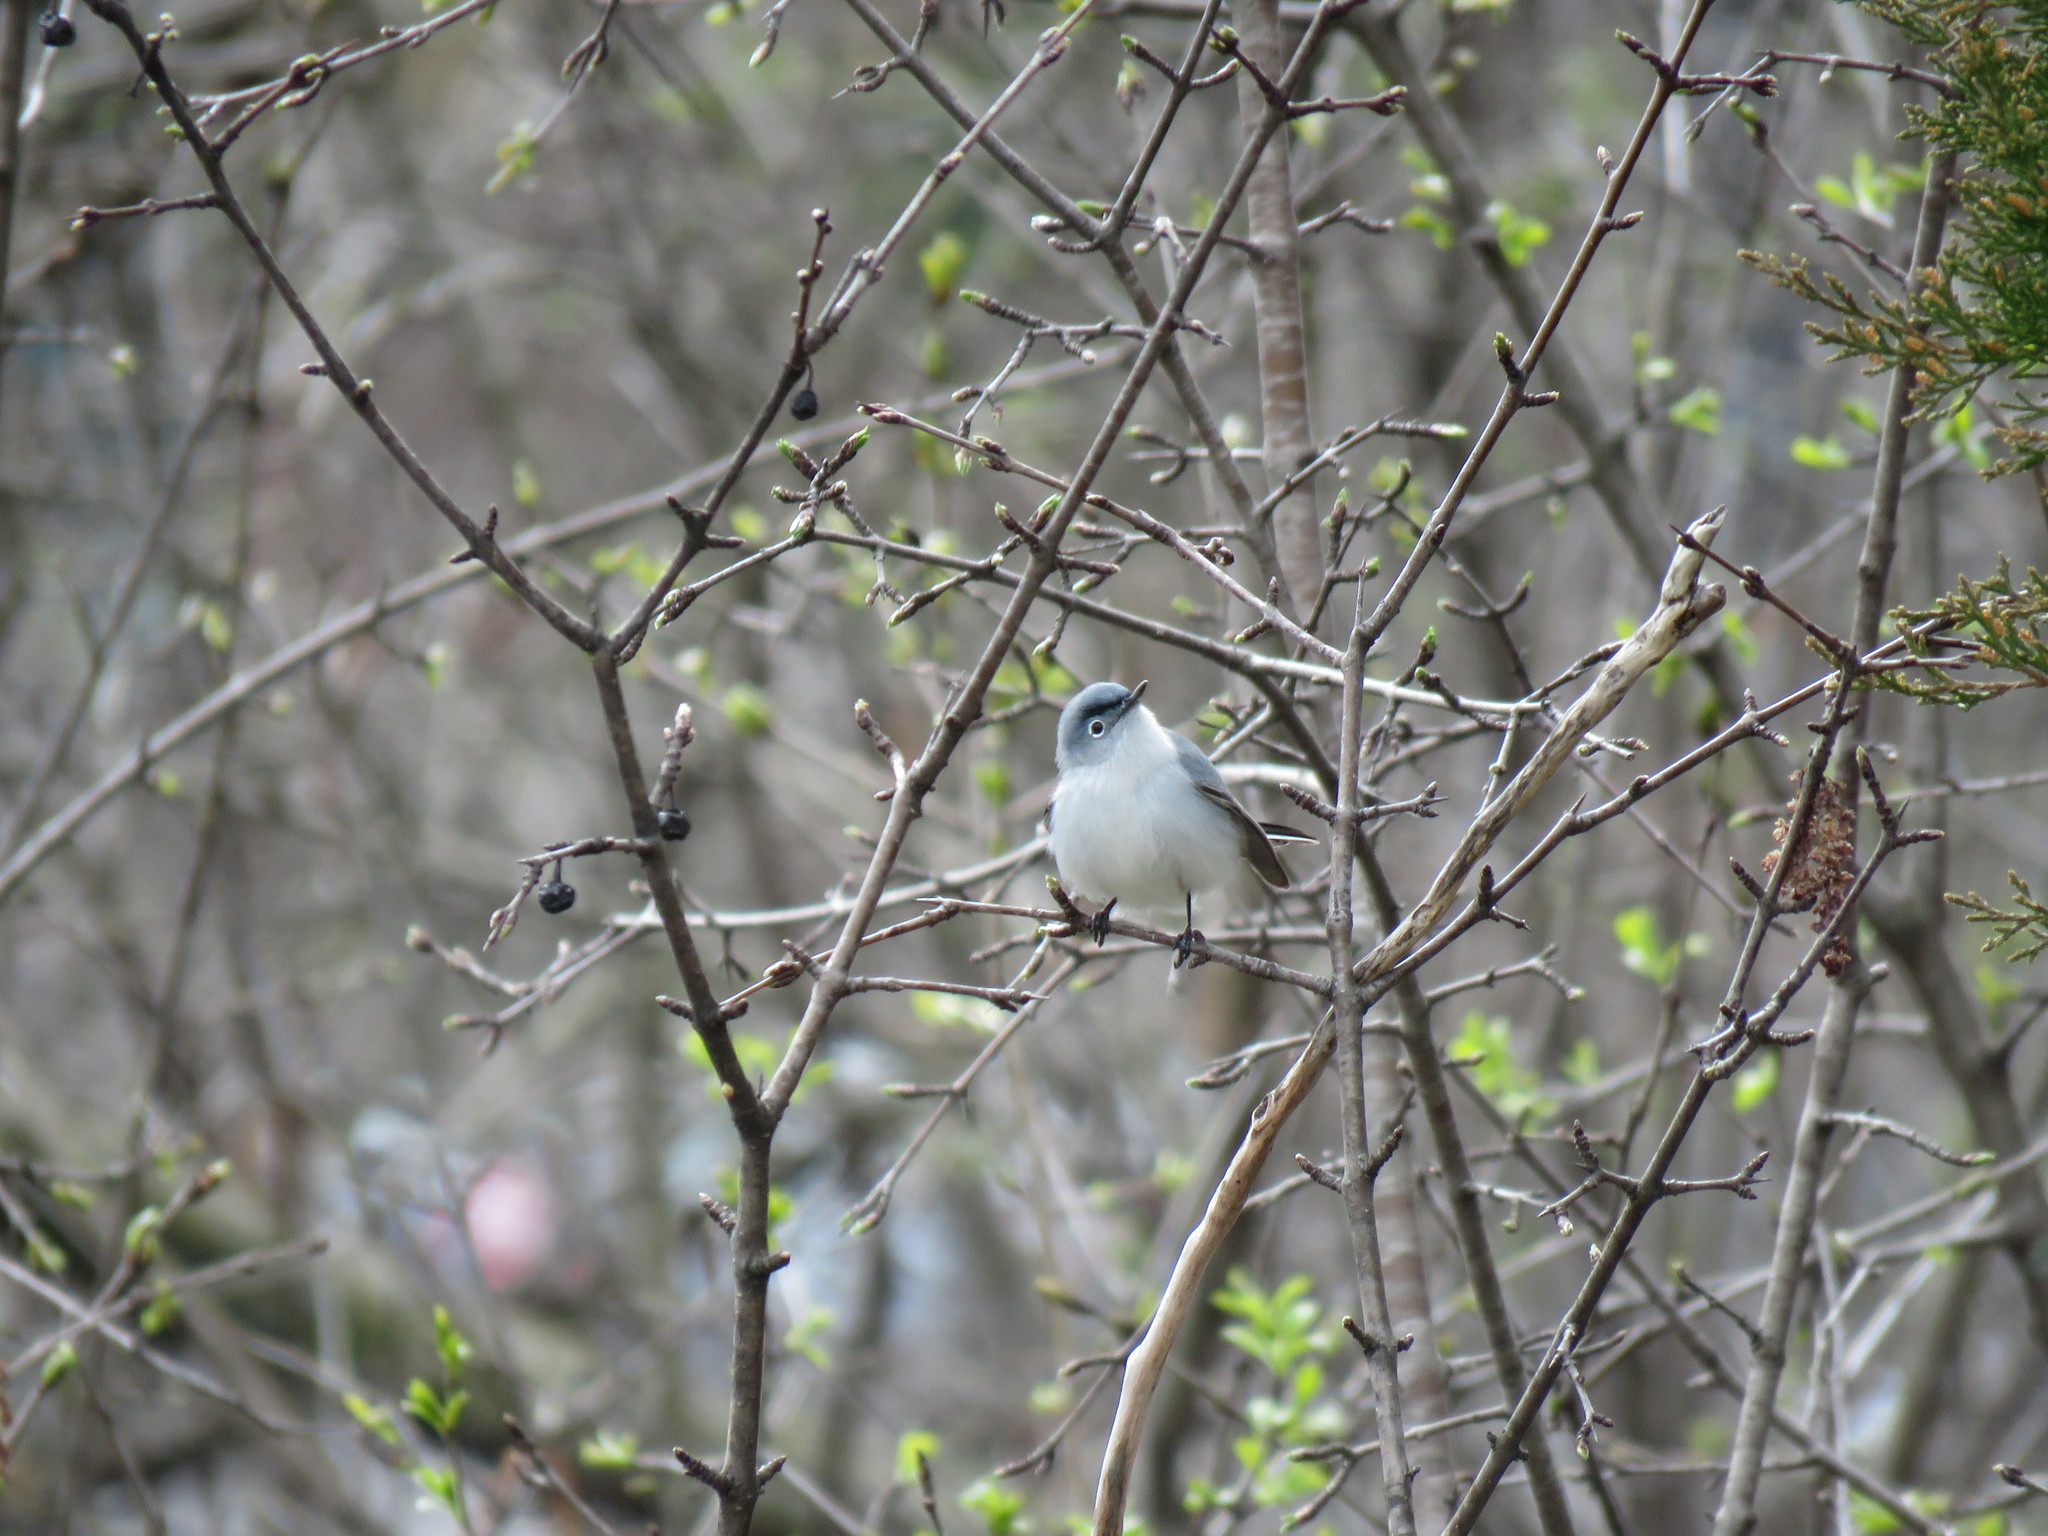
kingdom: Animalia
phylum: Chordata
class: Aves
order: Passeriformes
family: Polioptilidae
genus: Polioptila
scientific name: Polioptila caerulea
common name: Blue-gray gnatcatcher
